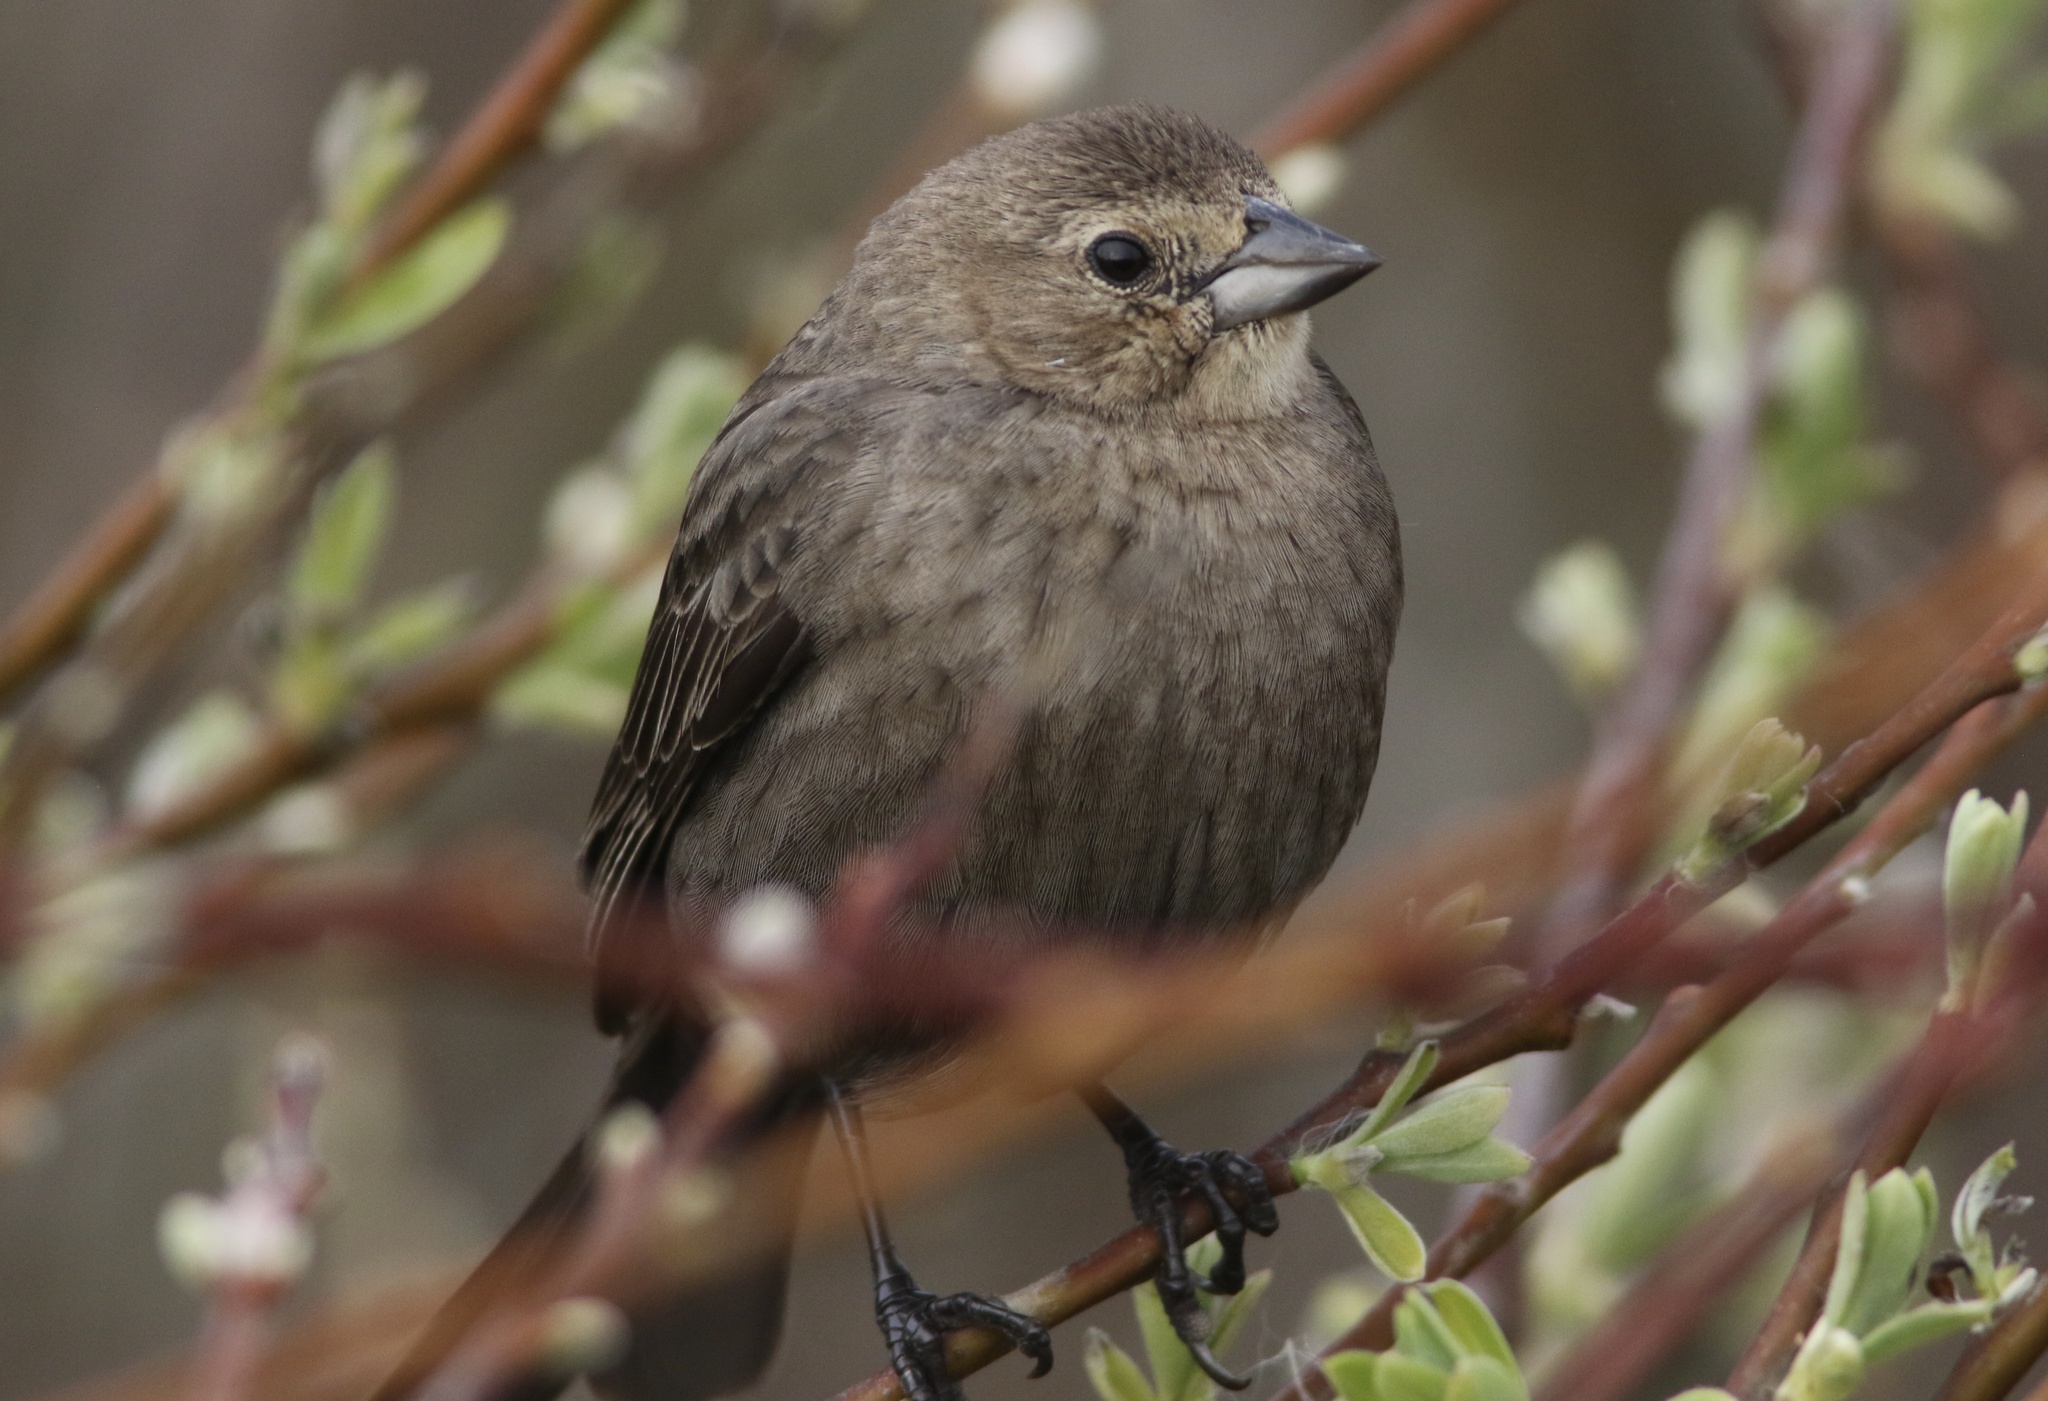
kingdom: Animalia
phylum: Chordata
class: Aves
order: Passeriformes
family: Icteridae
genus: Molothrus
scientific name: Molothrus ater
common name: Brown-headed cowbird
